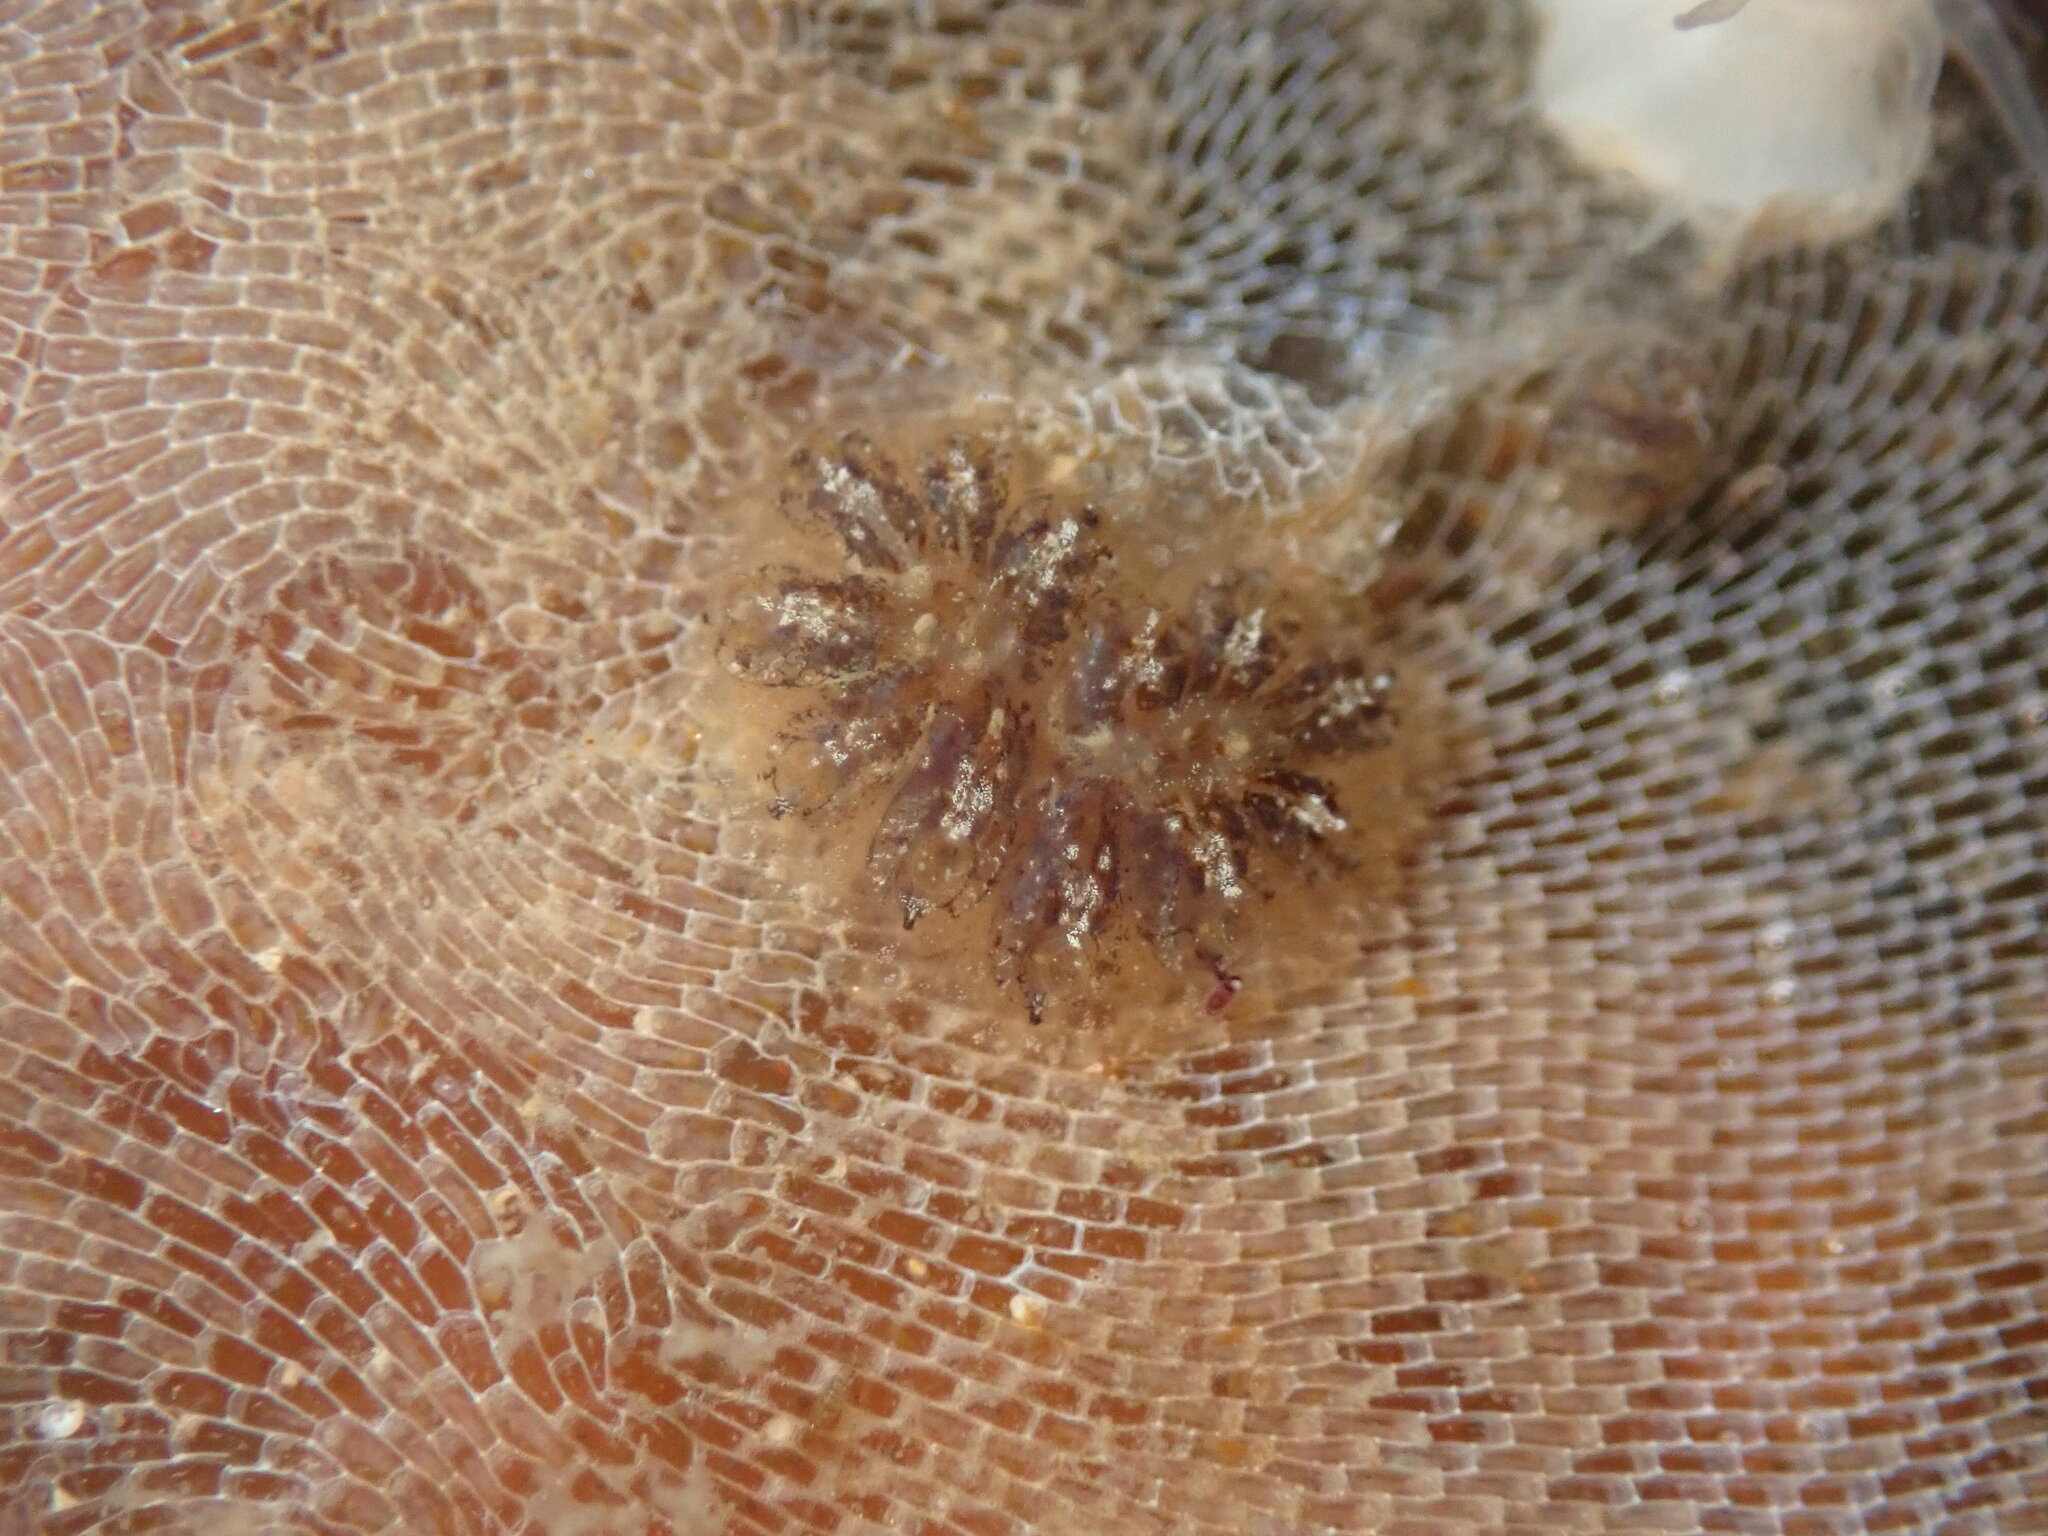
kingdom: Animalia
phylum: Chordata
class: Ascidiacea
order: Stolidobranchia
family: Styelidae
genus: Botryllus
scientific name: Botryllus schlosseri
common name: Golden star tunicate
